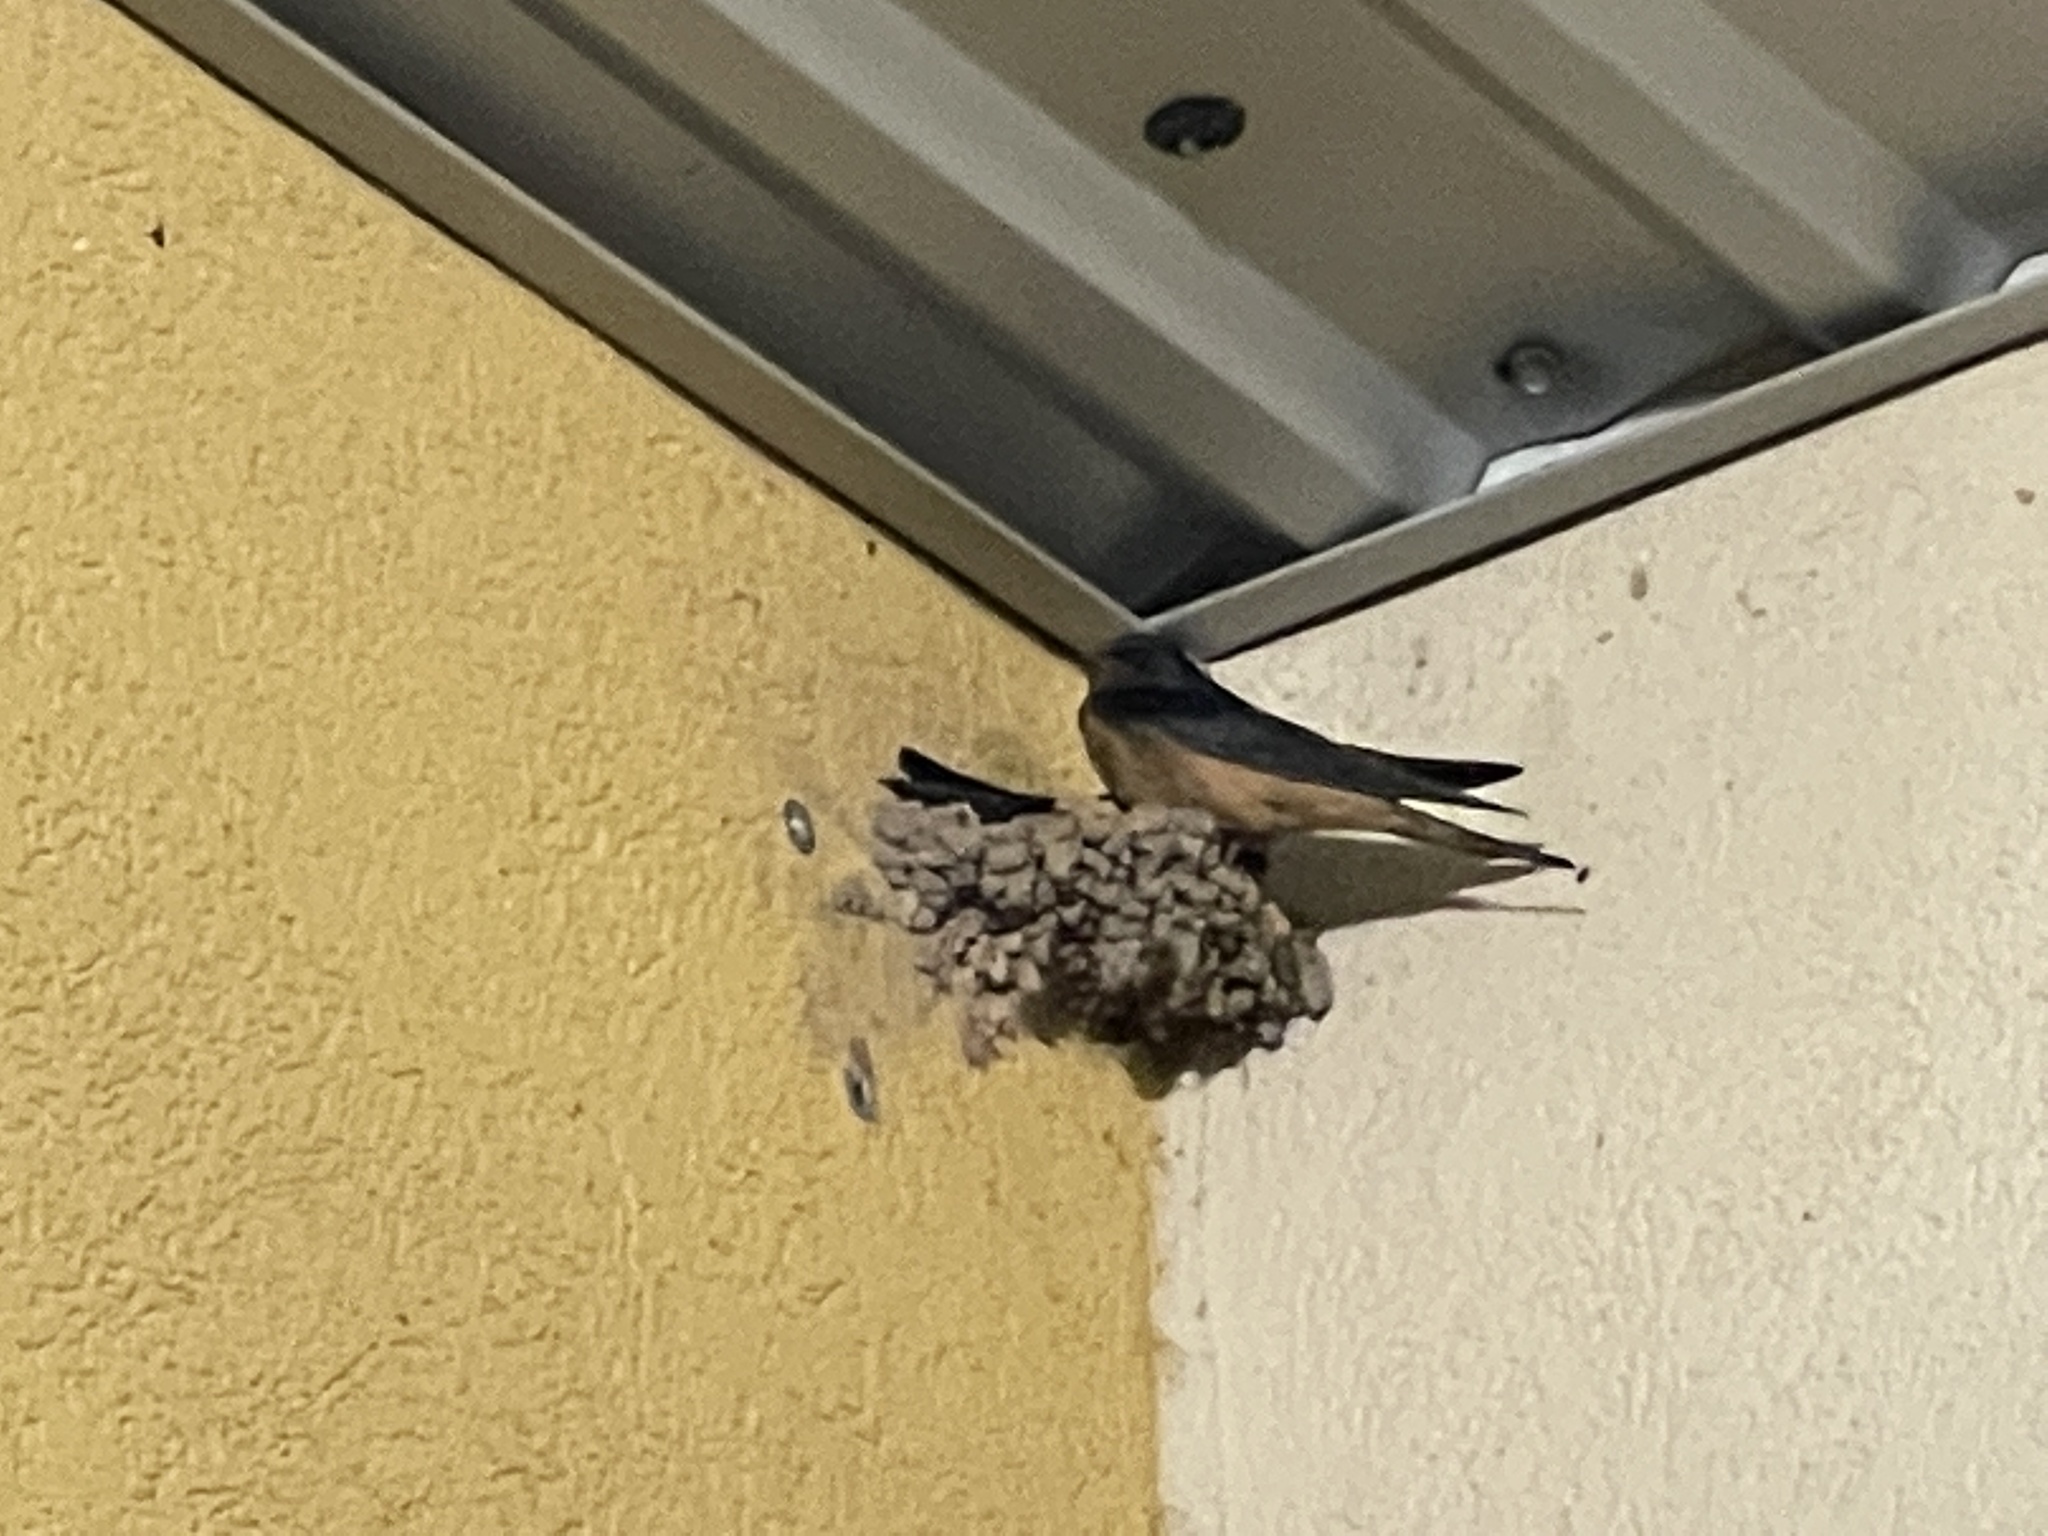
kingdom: Animalia
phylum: Chordata
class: Aves
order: Passeriformes
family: Hirundinidae
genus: Hirundo
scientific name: Hirundo rustica
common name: Barn swallow
